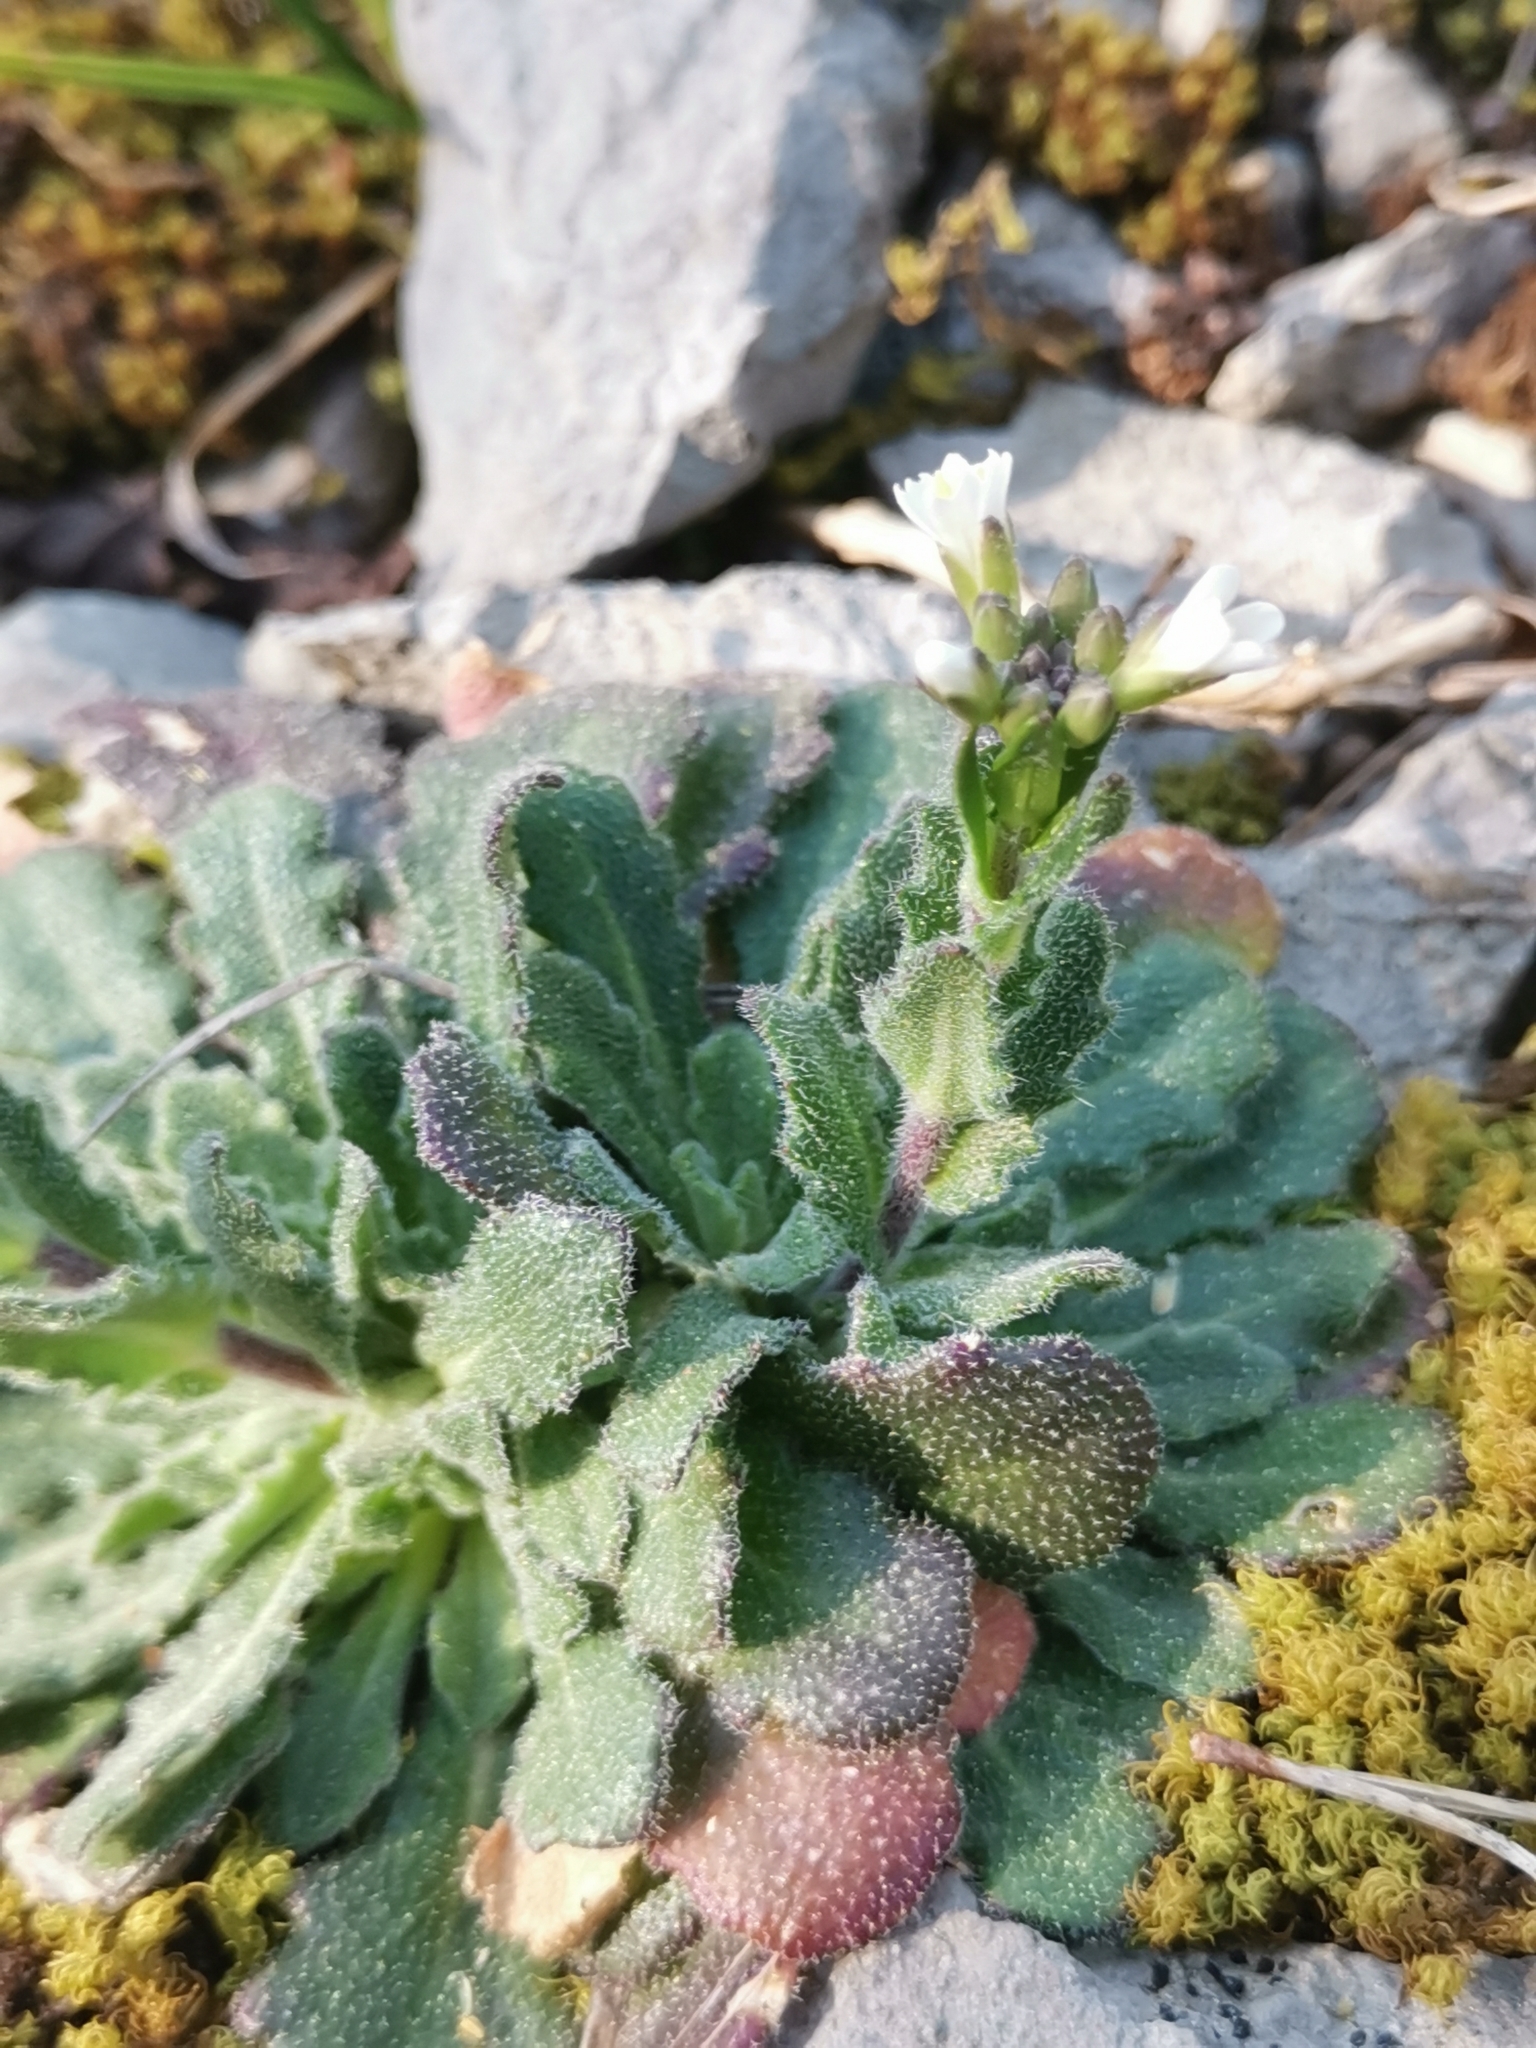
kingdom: Plantae
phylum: Tracheophyta
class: Magnoliopsida
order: Brassicales
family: Brassicaceae
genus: Arabis
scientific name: Arabis collina
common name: Rosy cress
